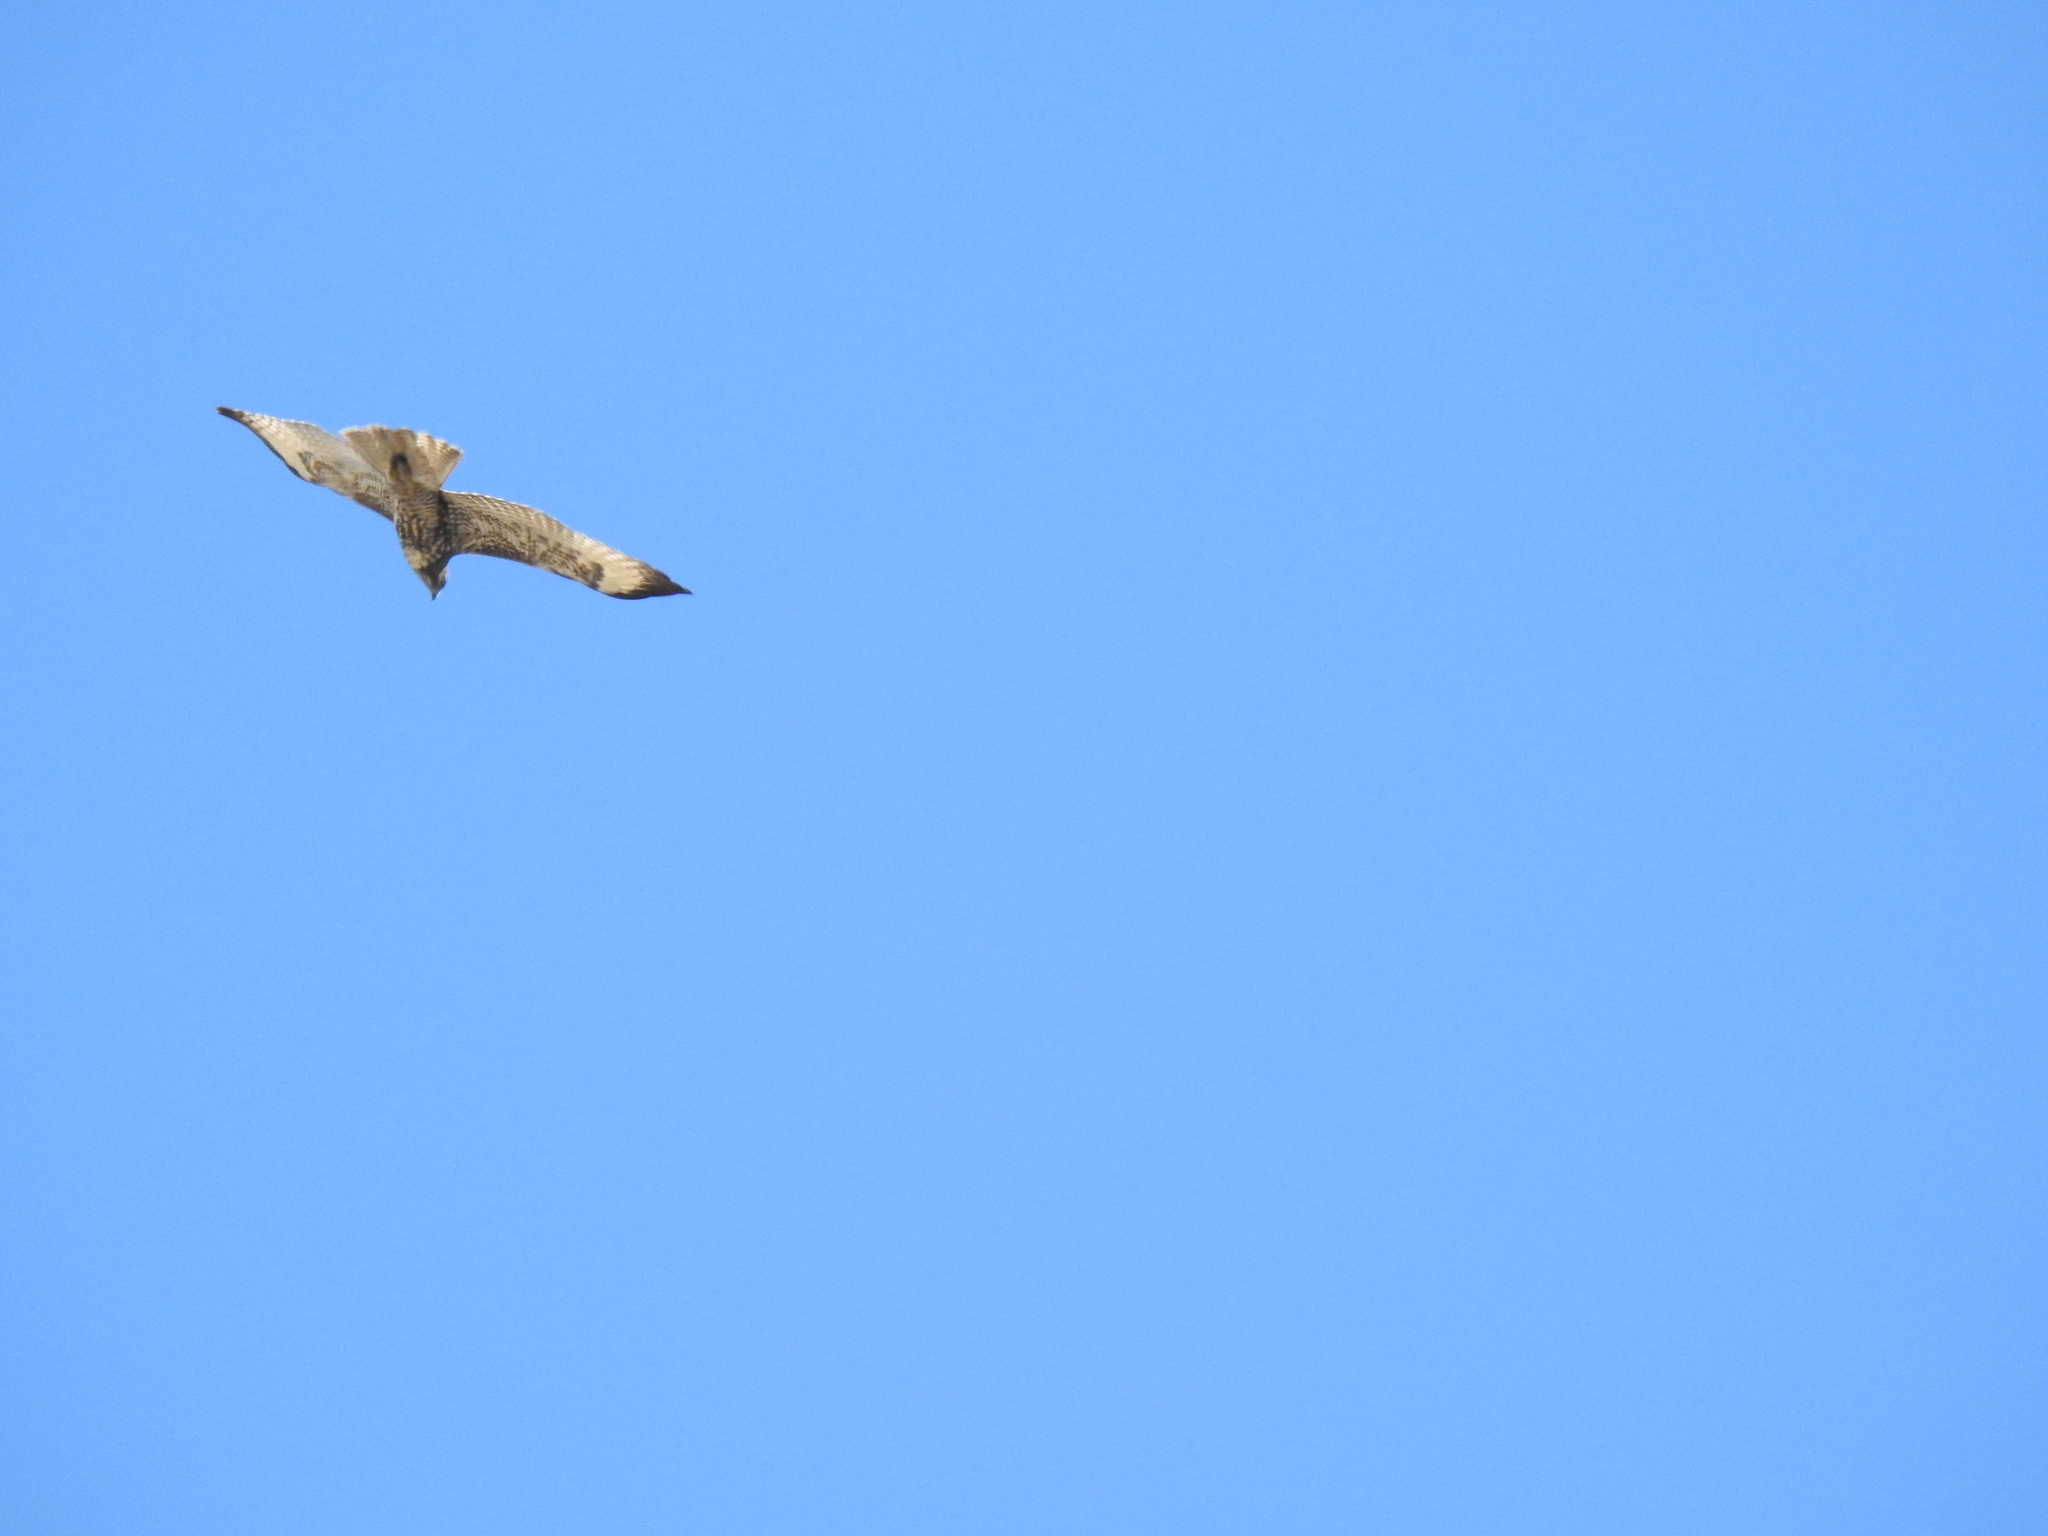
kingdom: Animalia
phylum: Chordata
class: Aves
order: Accipitriformes
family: Accipitridae
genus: Buteo
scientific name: Buteo jamaicensis
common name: Red-tailed hawk
